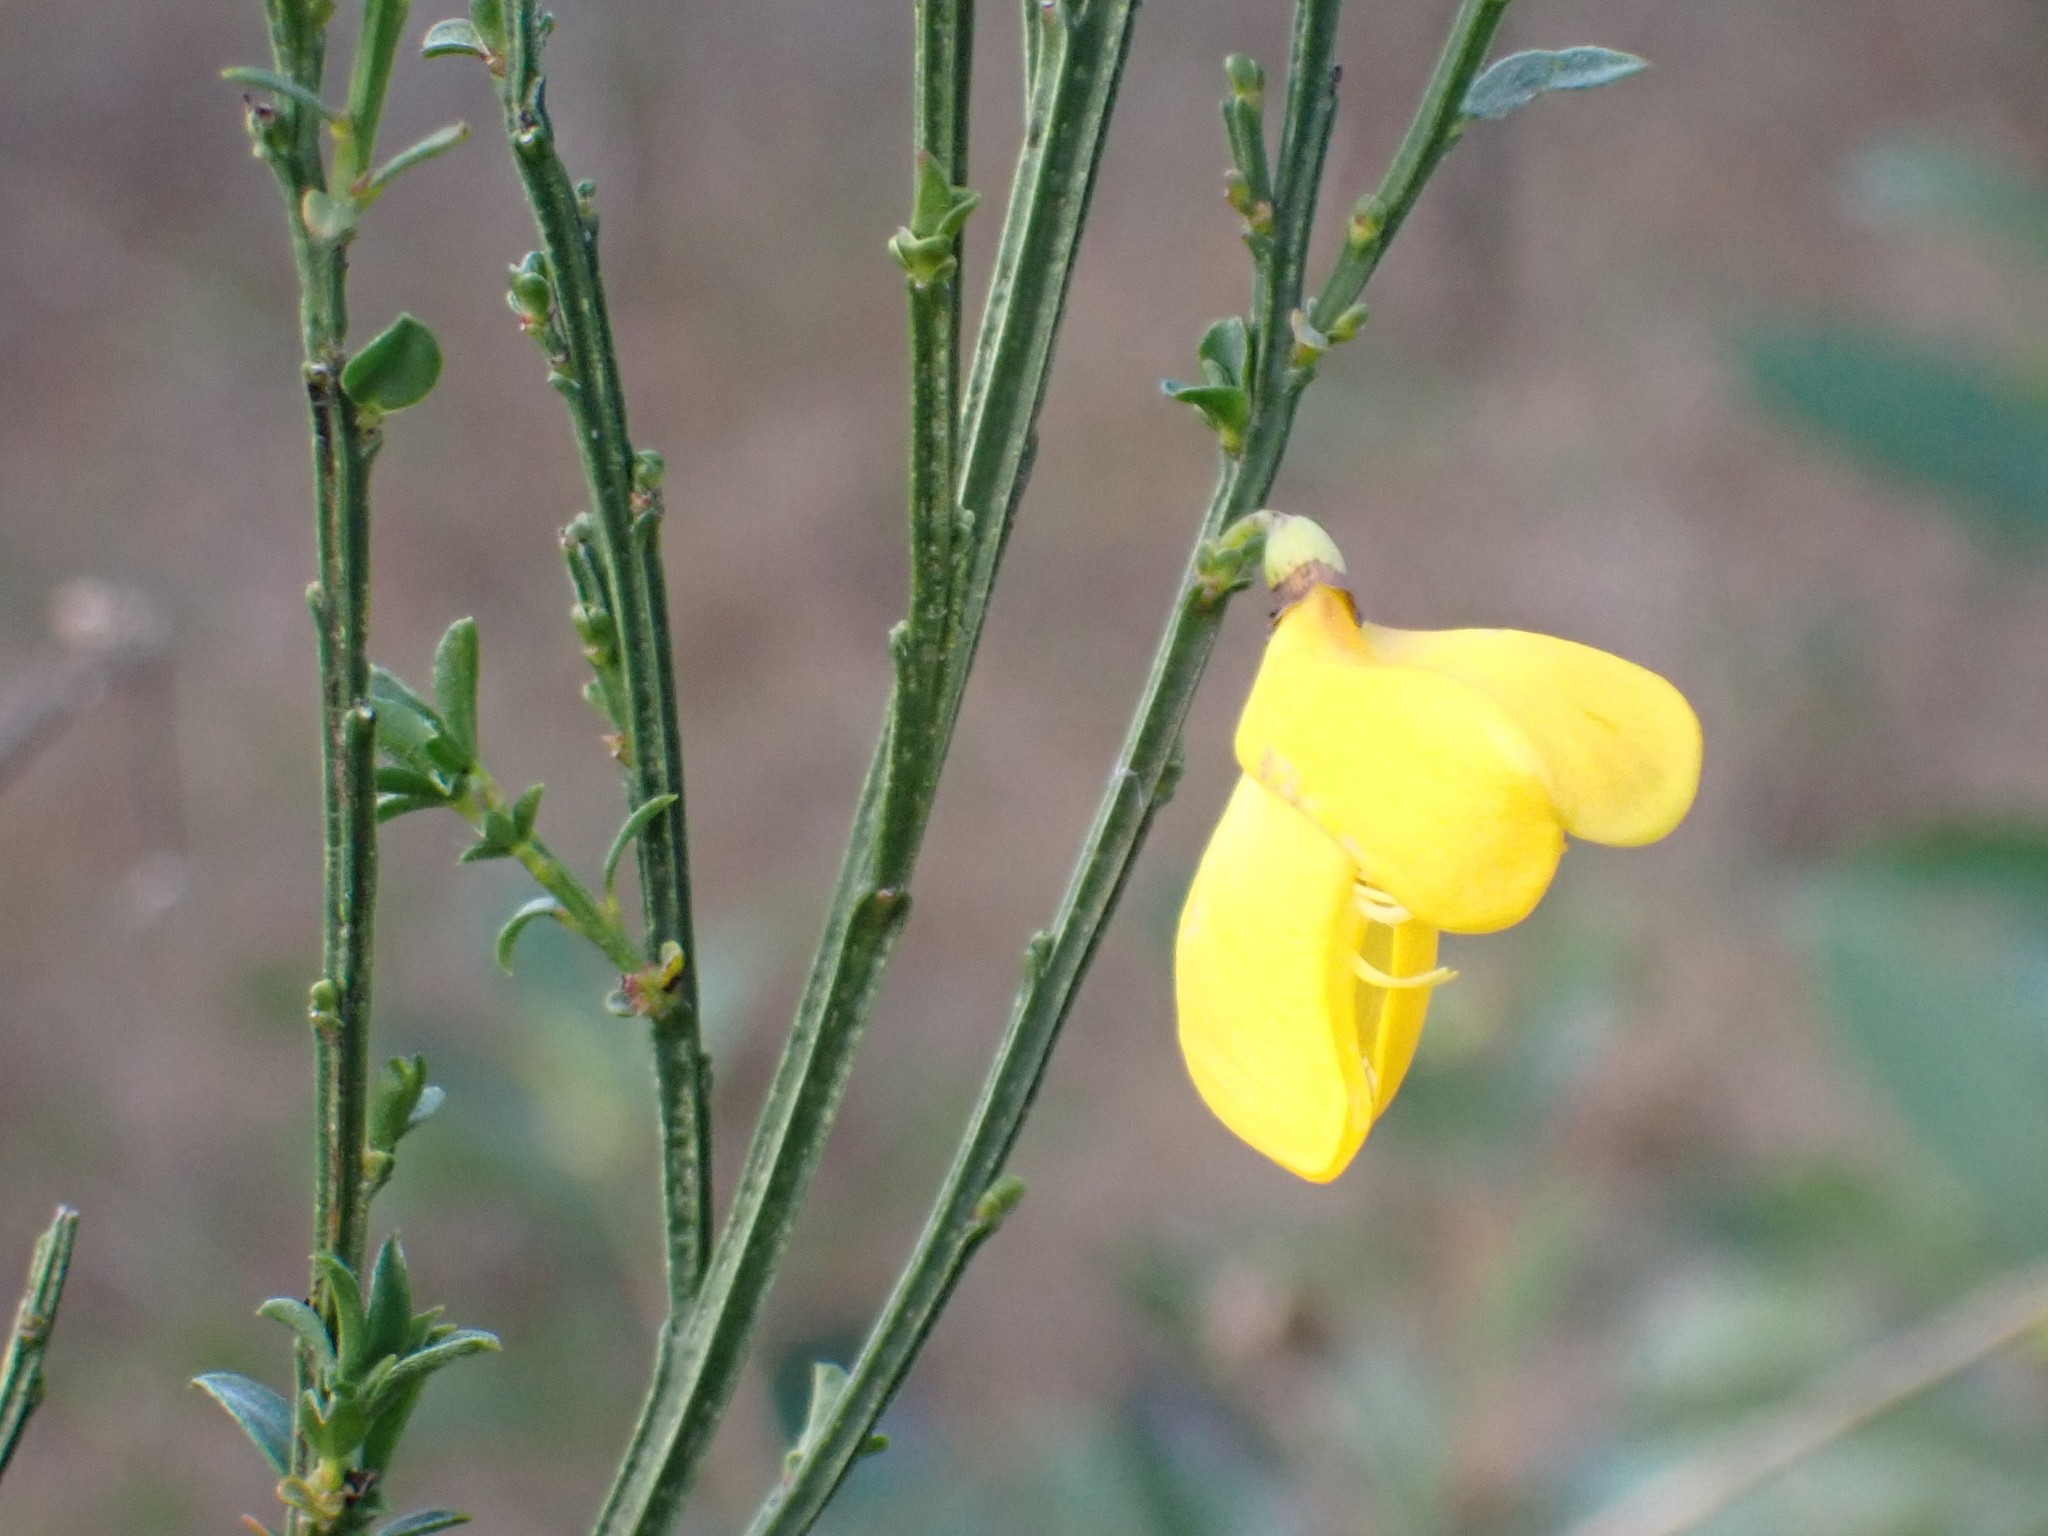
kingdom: Plantae
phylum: Tracheophyta
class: Magnoliopsida
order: Fabales
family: Fabaceae
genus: Cytisus
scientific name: Cytisus scoparius
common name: Scotch broom
